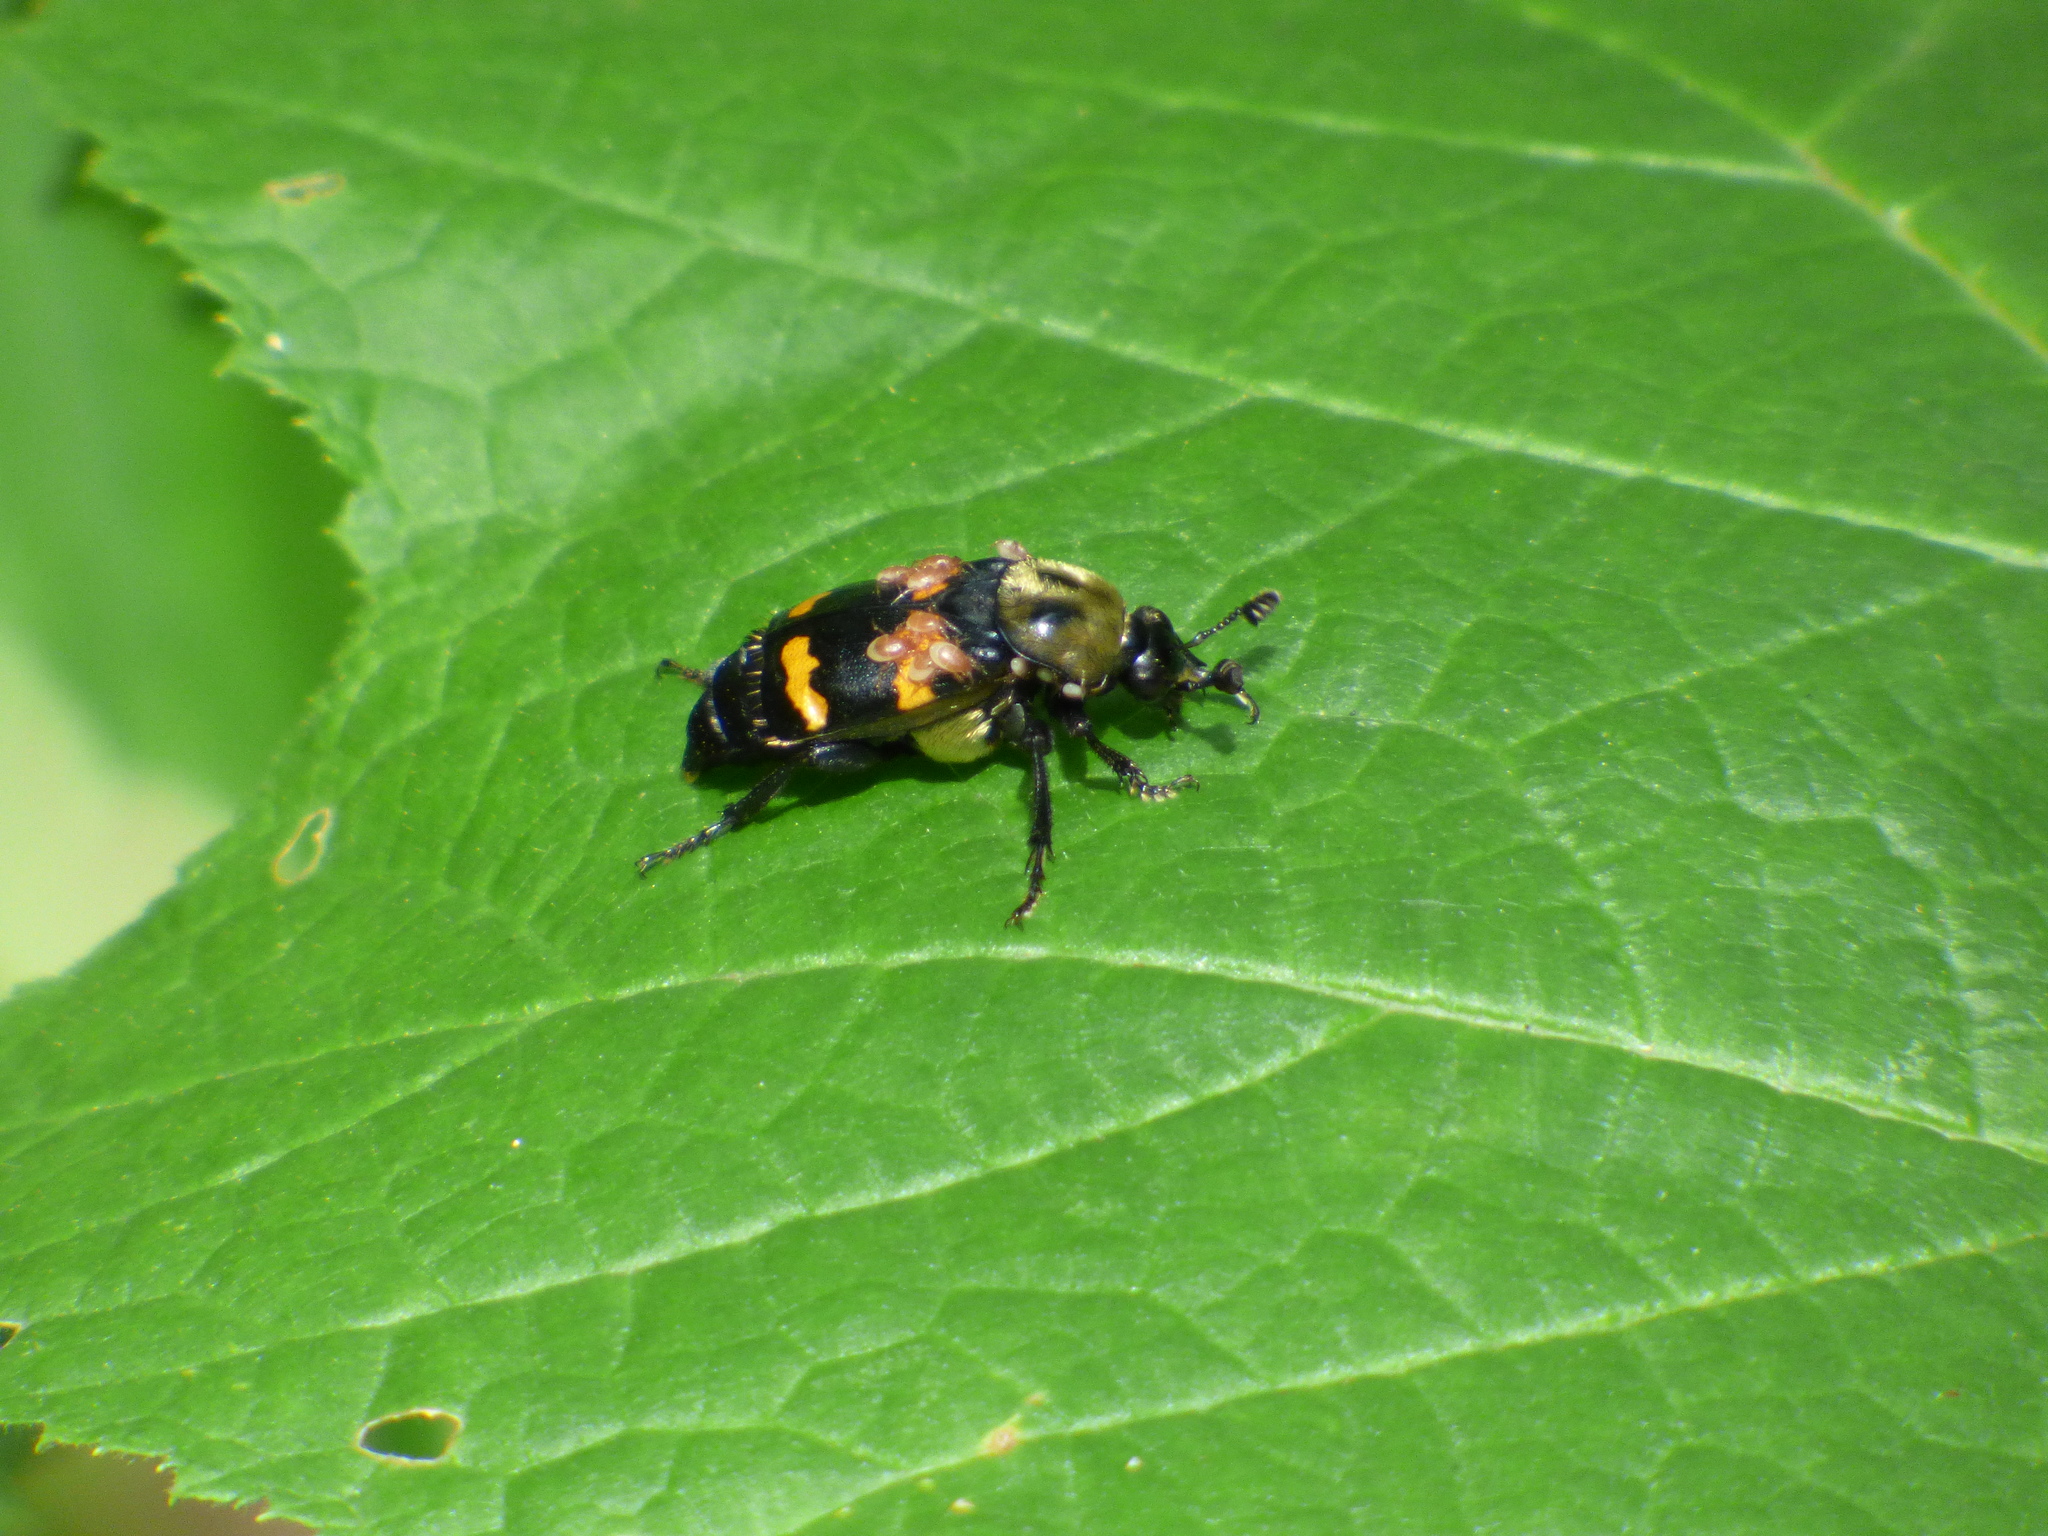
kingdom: Animalia
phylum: Arthropoda
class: Insecta
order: Coleoptera
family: Staphylinidae
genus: Nicrophorus
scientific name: Nicrophorus tomentosus
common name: Tomentose burying beetle
